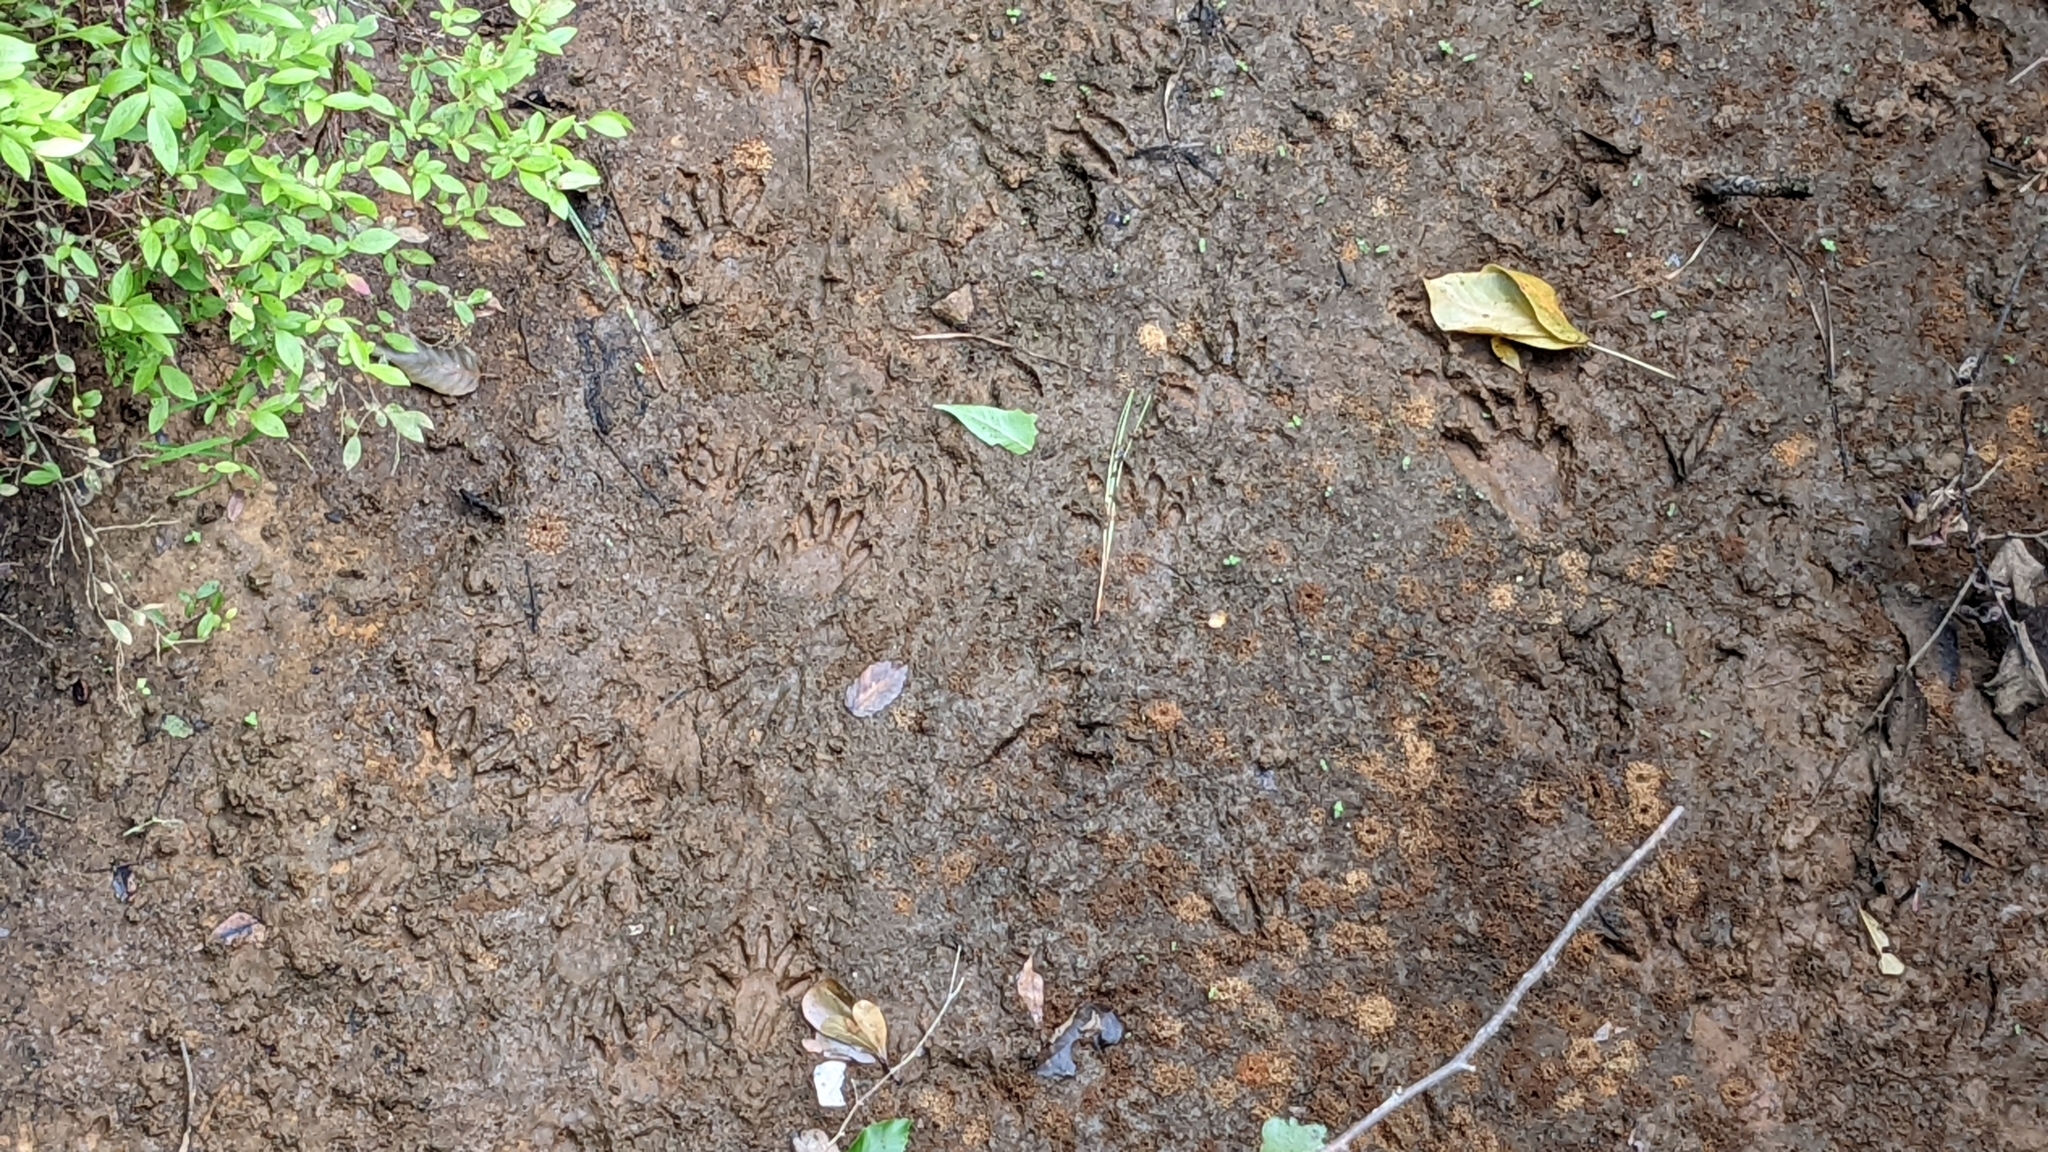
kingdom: Animalia
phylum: Chordata
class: Mammalia
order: Carnivora
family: Procyonidae
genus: Procyon
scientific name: Procyon lotor
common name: Raccoon
